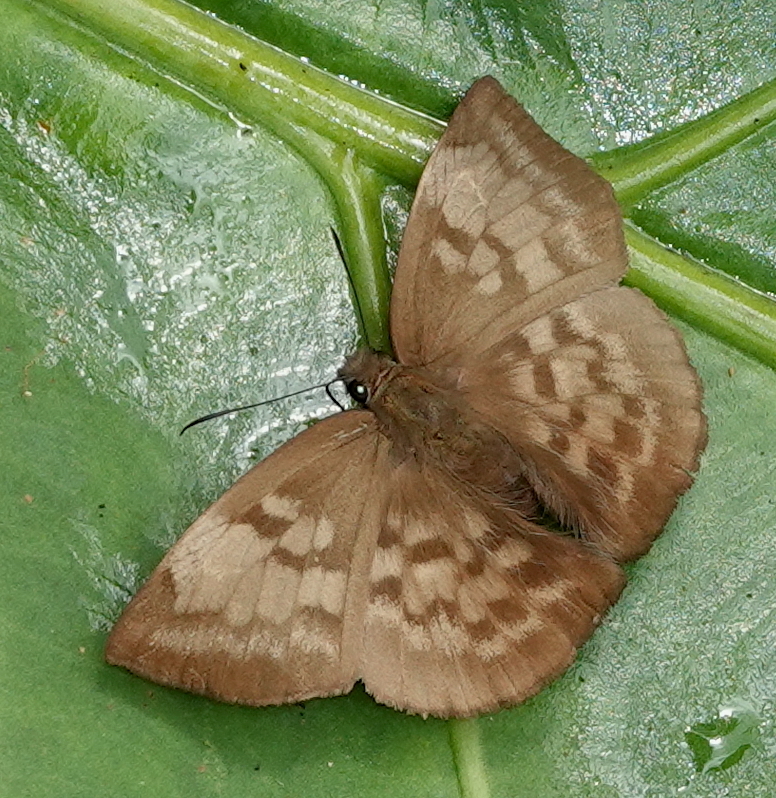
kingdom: Animalia
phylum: Arthropoda
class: Insecta
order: Lepidoptera
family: Hesperiidae
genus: Achlyodes
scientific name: Achlyodes pallida
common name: Pale sicklewing
